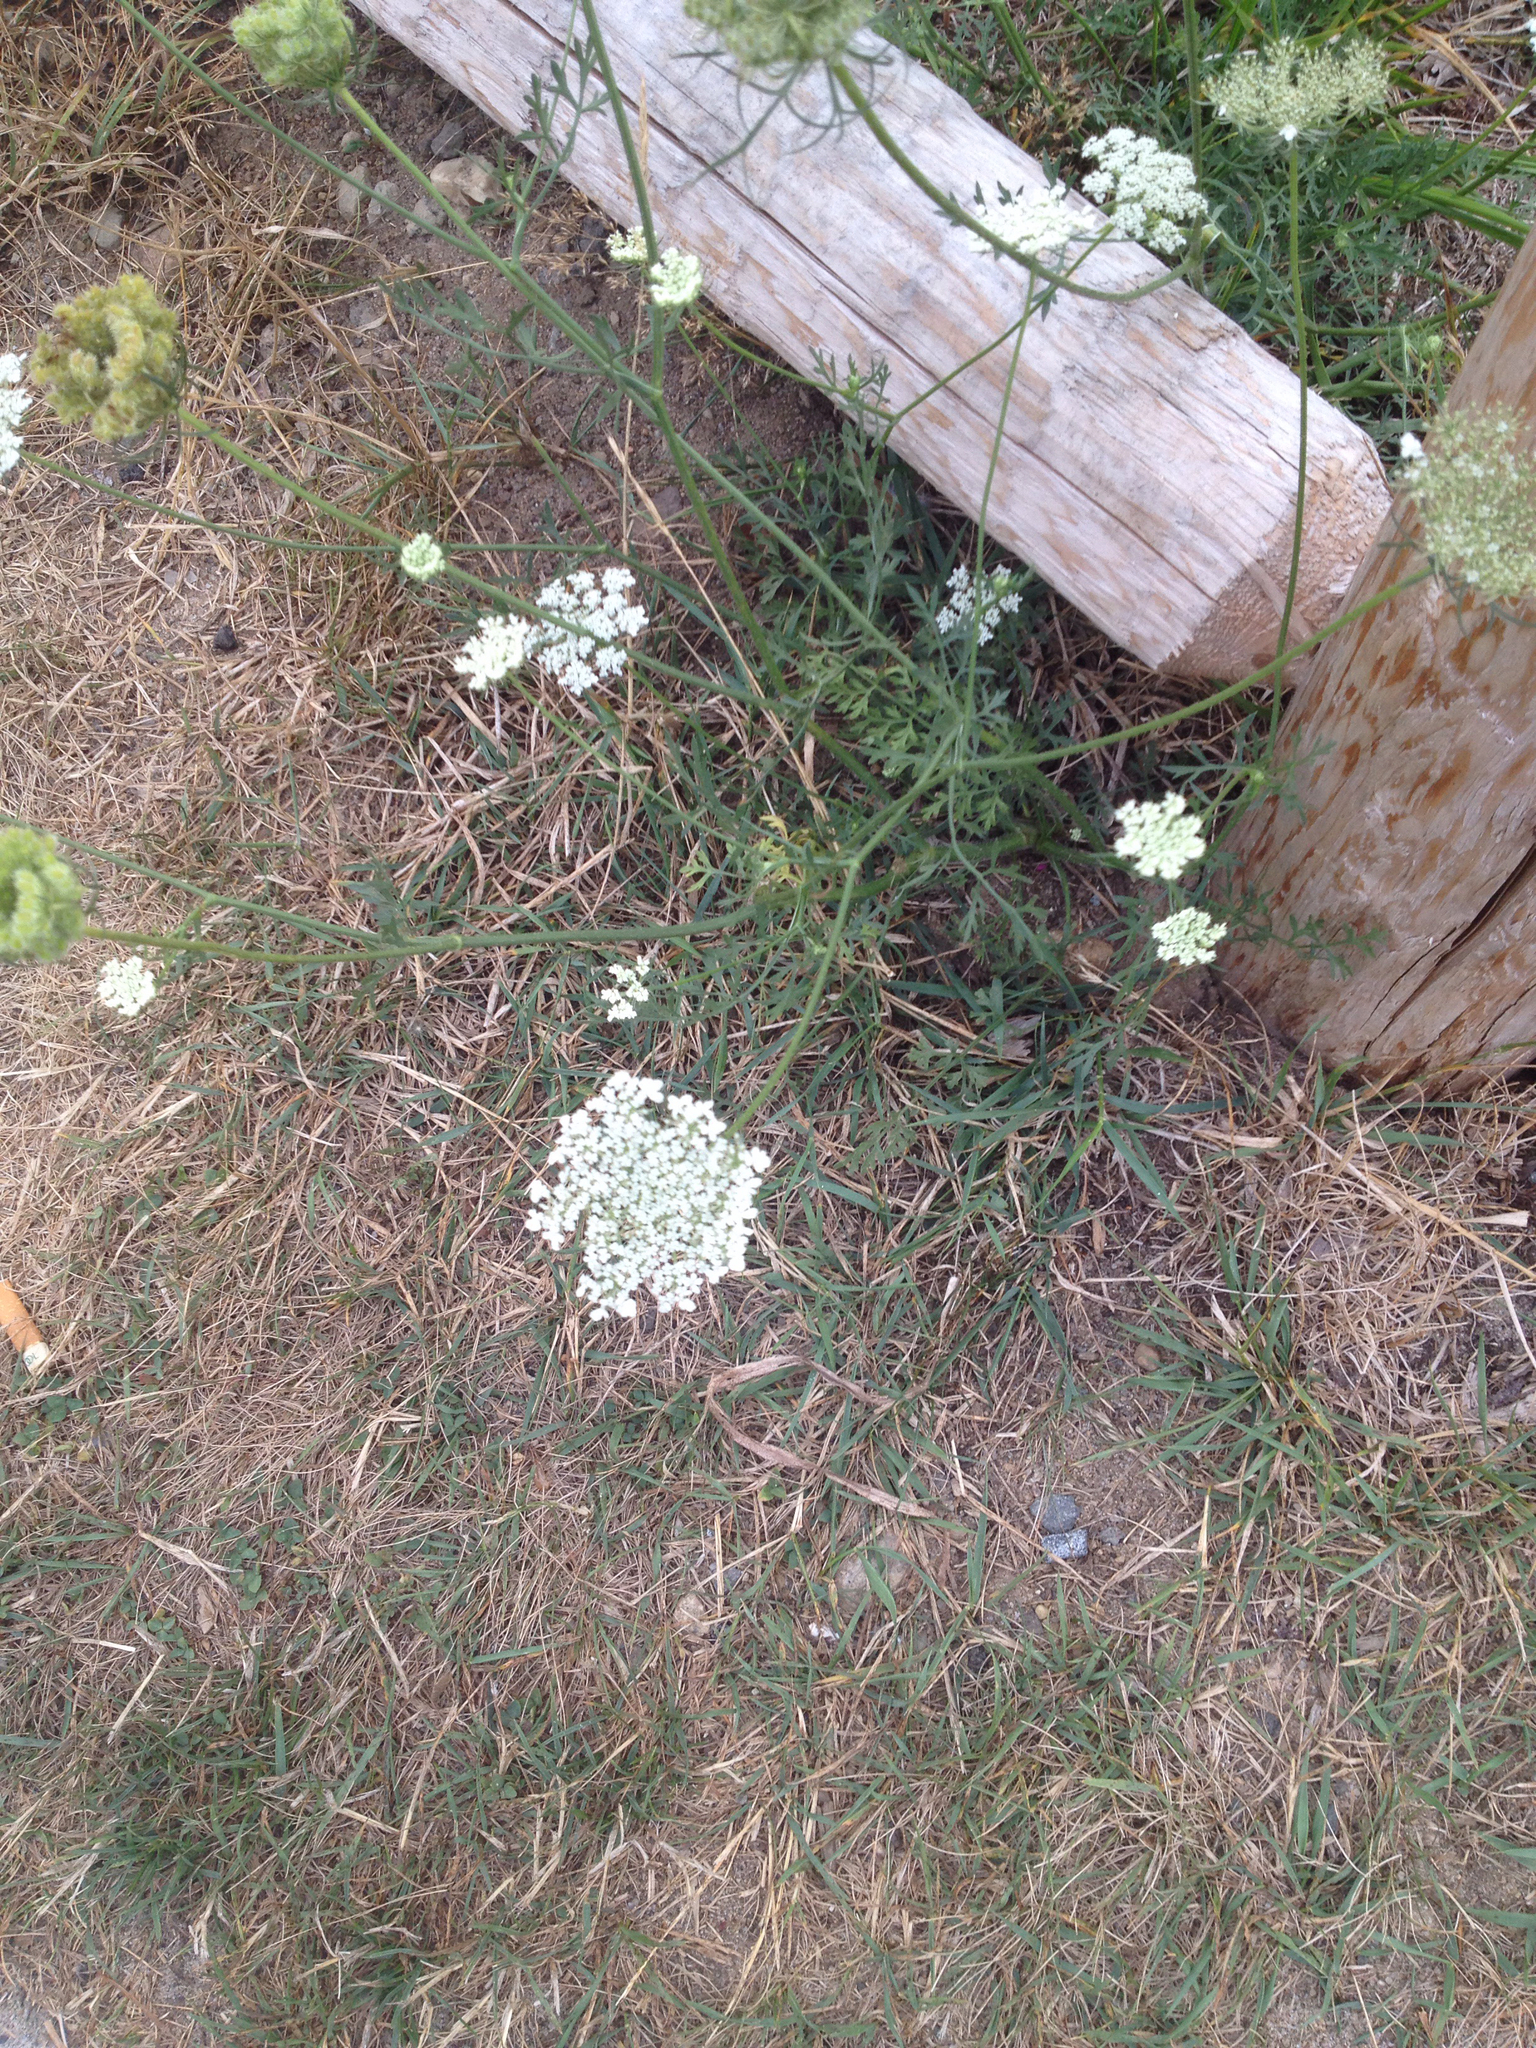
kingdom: Plantae
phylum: Tracheophyta
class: Magnoliopsida
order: Apiales
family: Apiaceae
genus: Daucus
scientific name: Daucus carota
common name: Wild carrot
